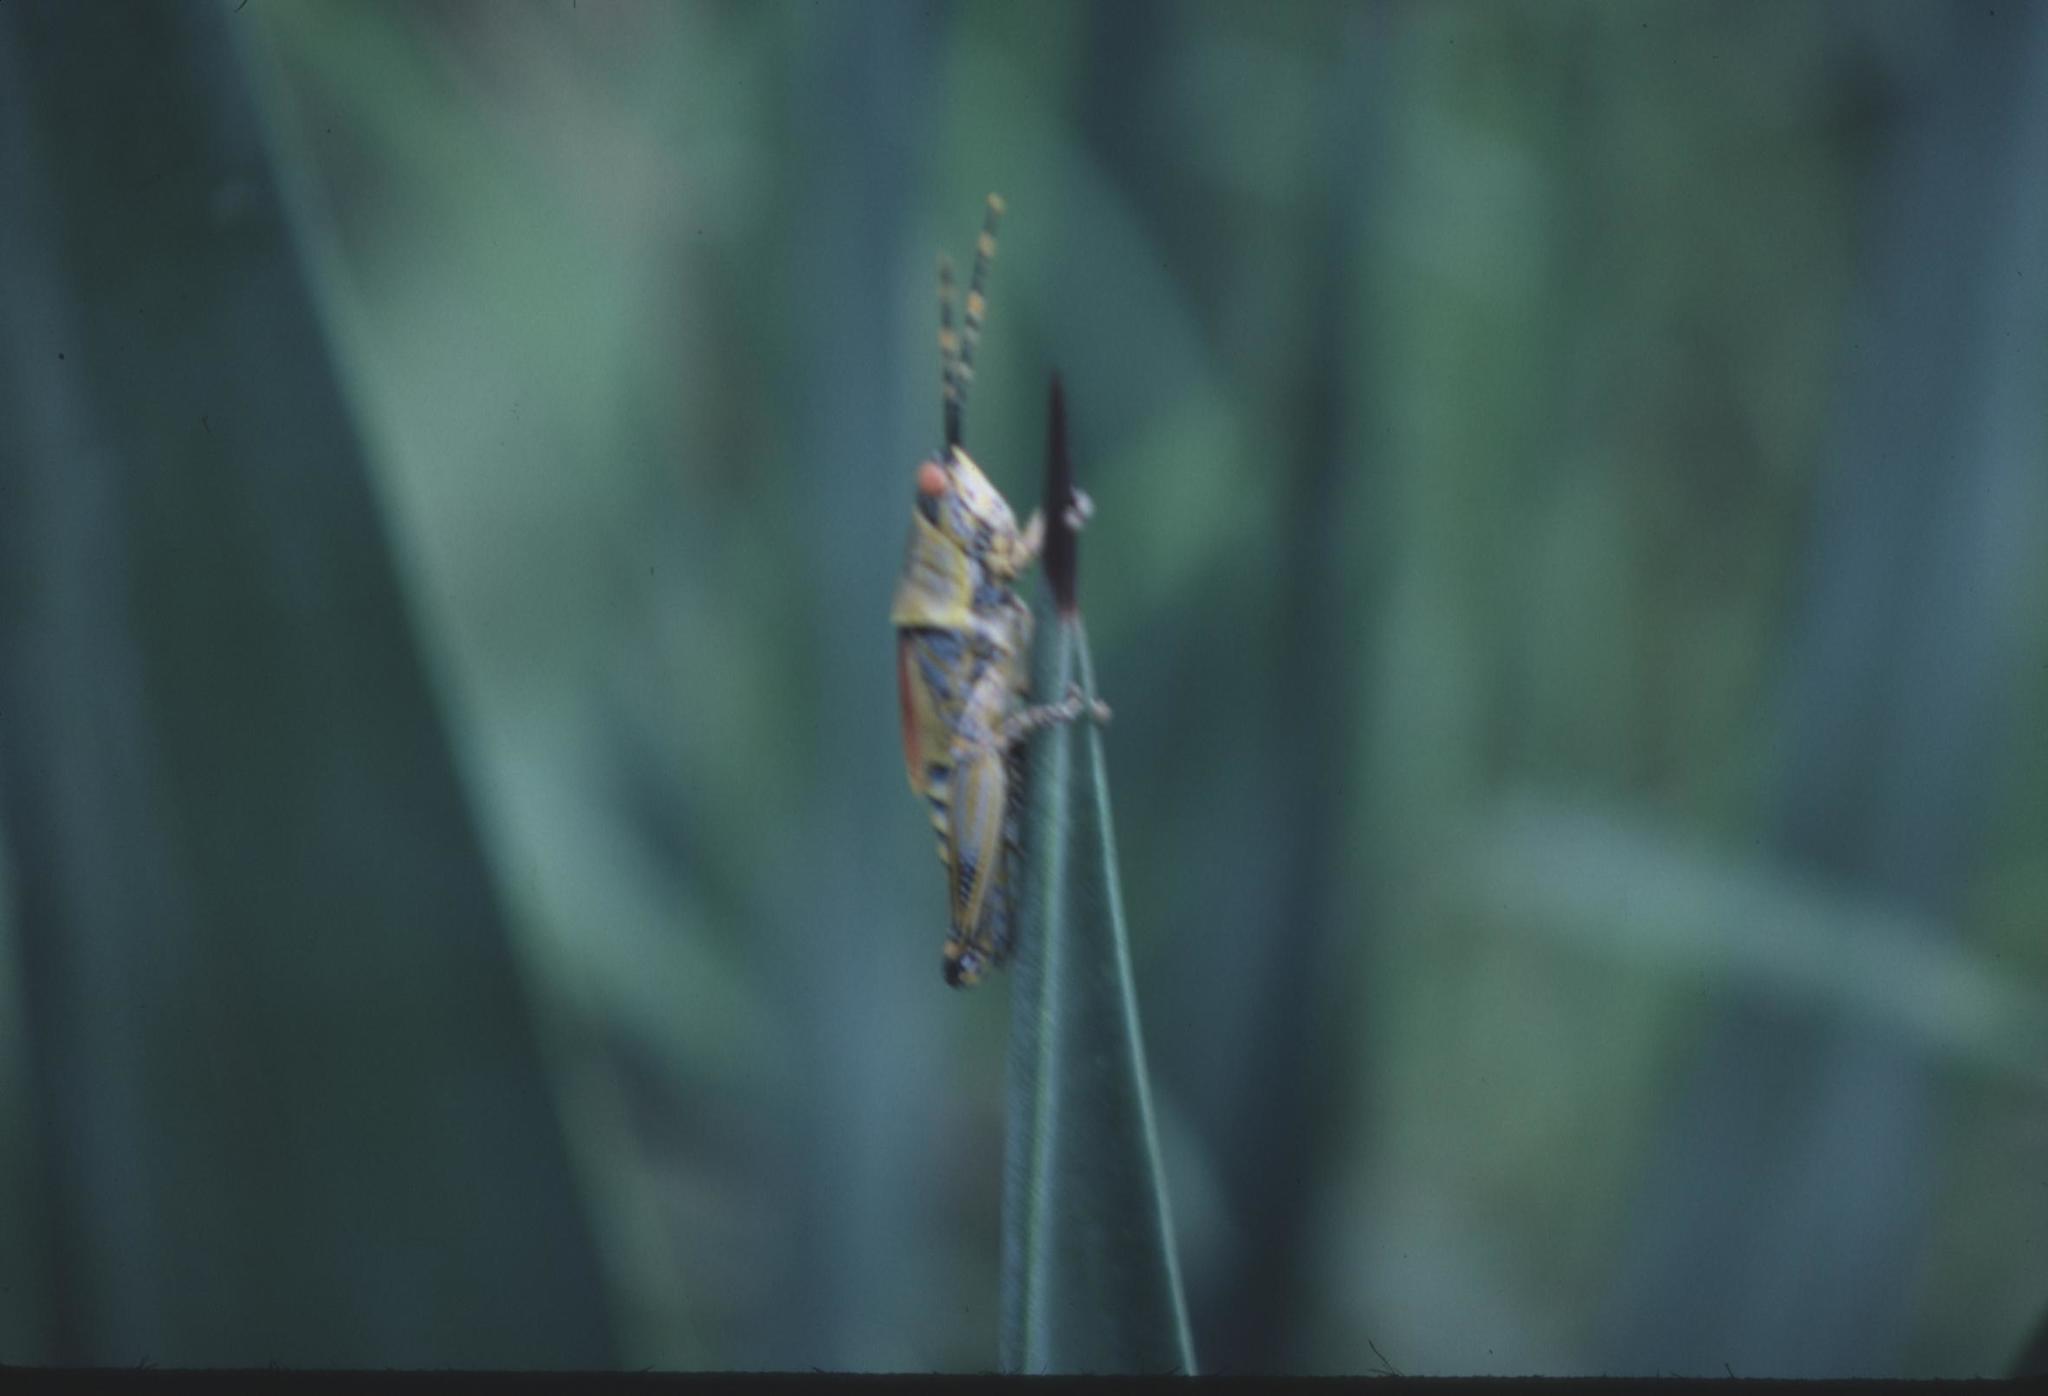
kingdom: Animalia
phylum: Arthropoda
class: Insecta
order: Orthoptera
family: Pyrgomorphidae
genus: Zonocerus
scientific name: Zonocerus elegans
